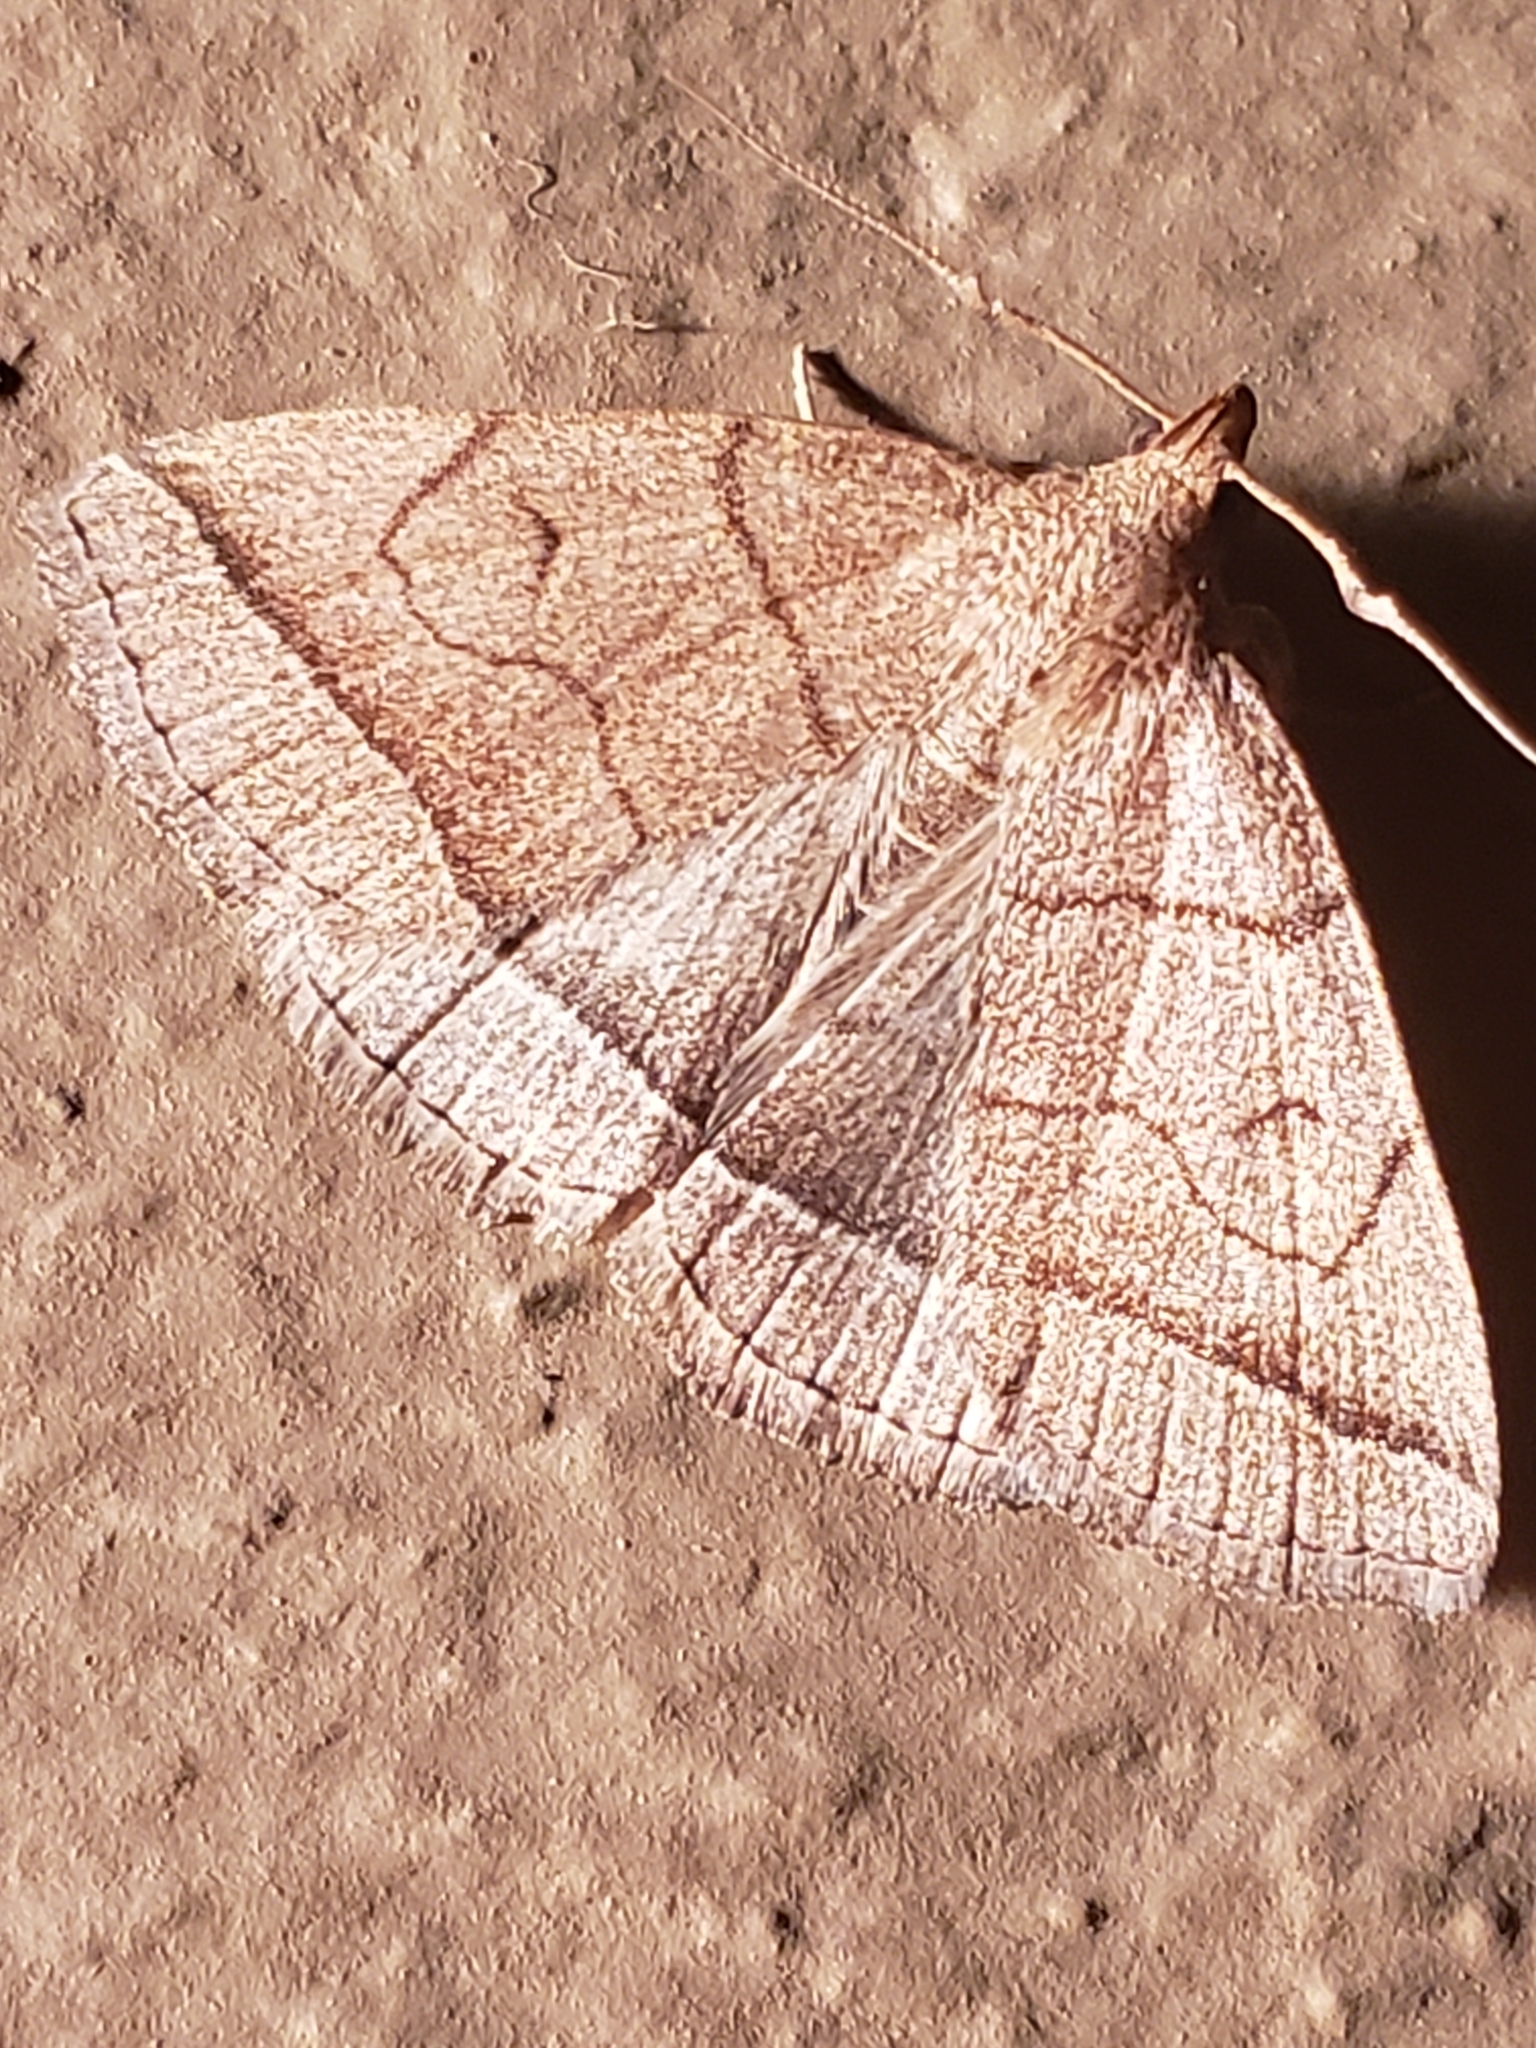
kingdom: Animalia
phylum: Arthropoda
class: Insecta
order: Lepidoptera
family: Erebidae
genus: Zanclognatha
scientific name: Zanclognatha cruralis
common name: Early fan-foot
